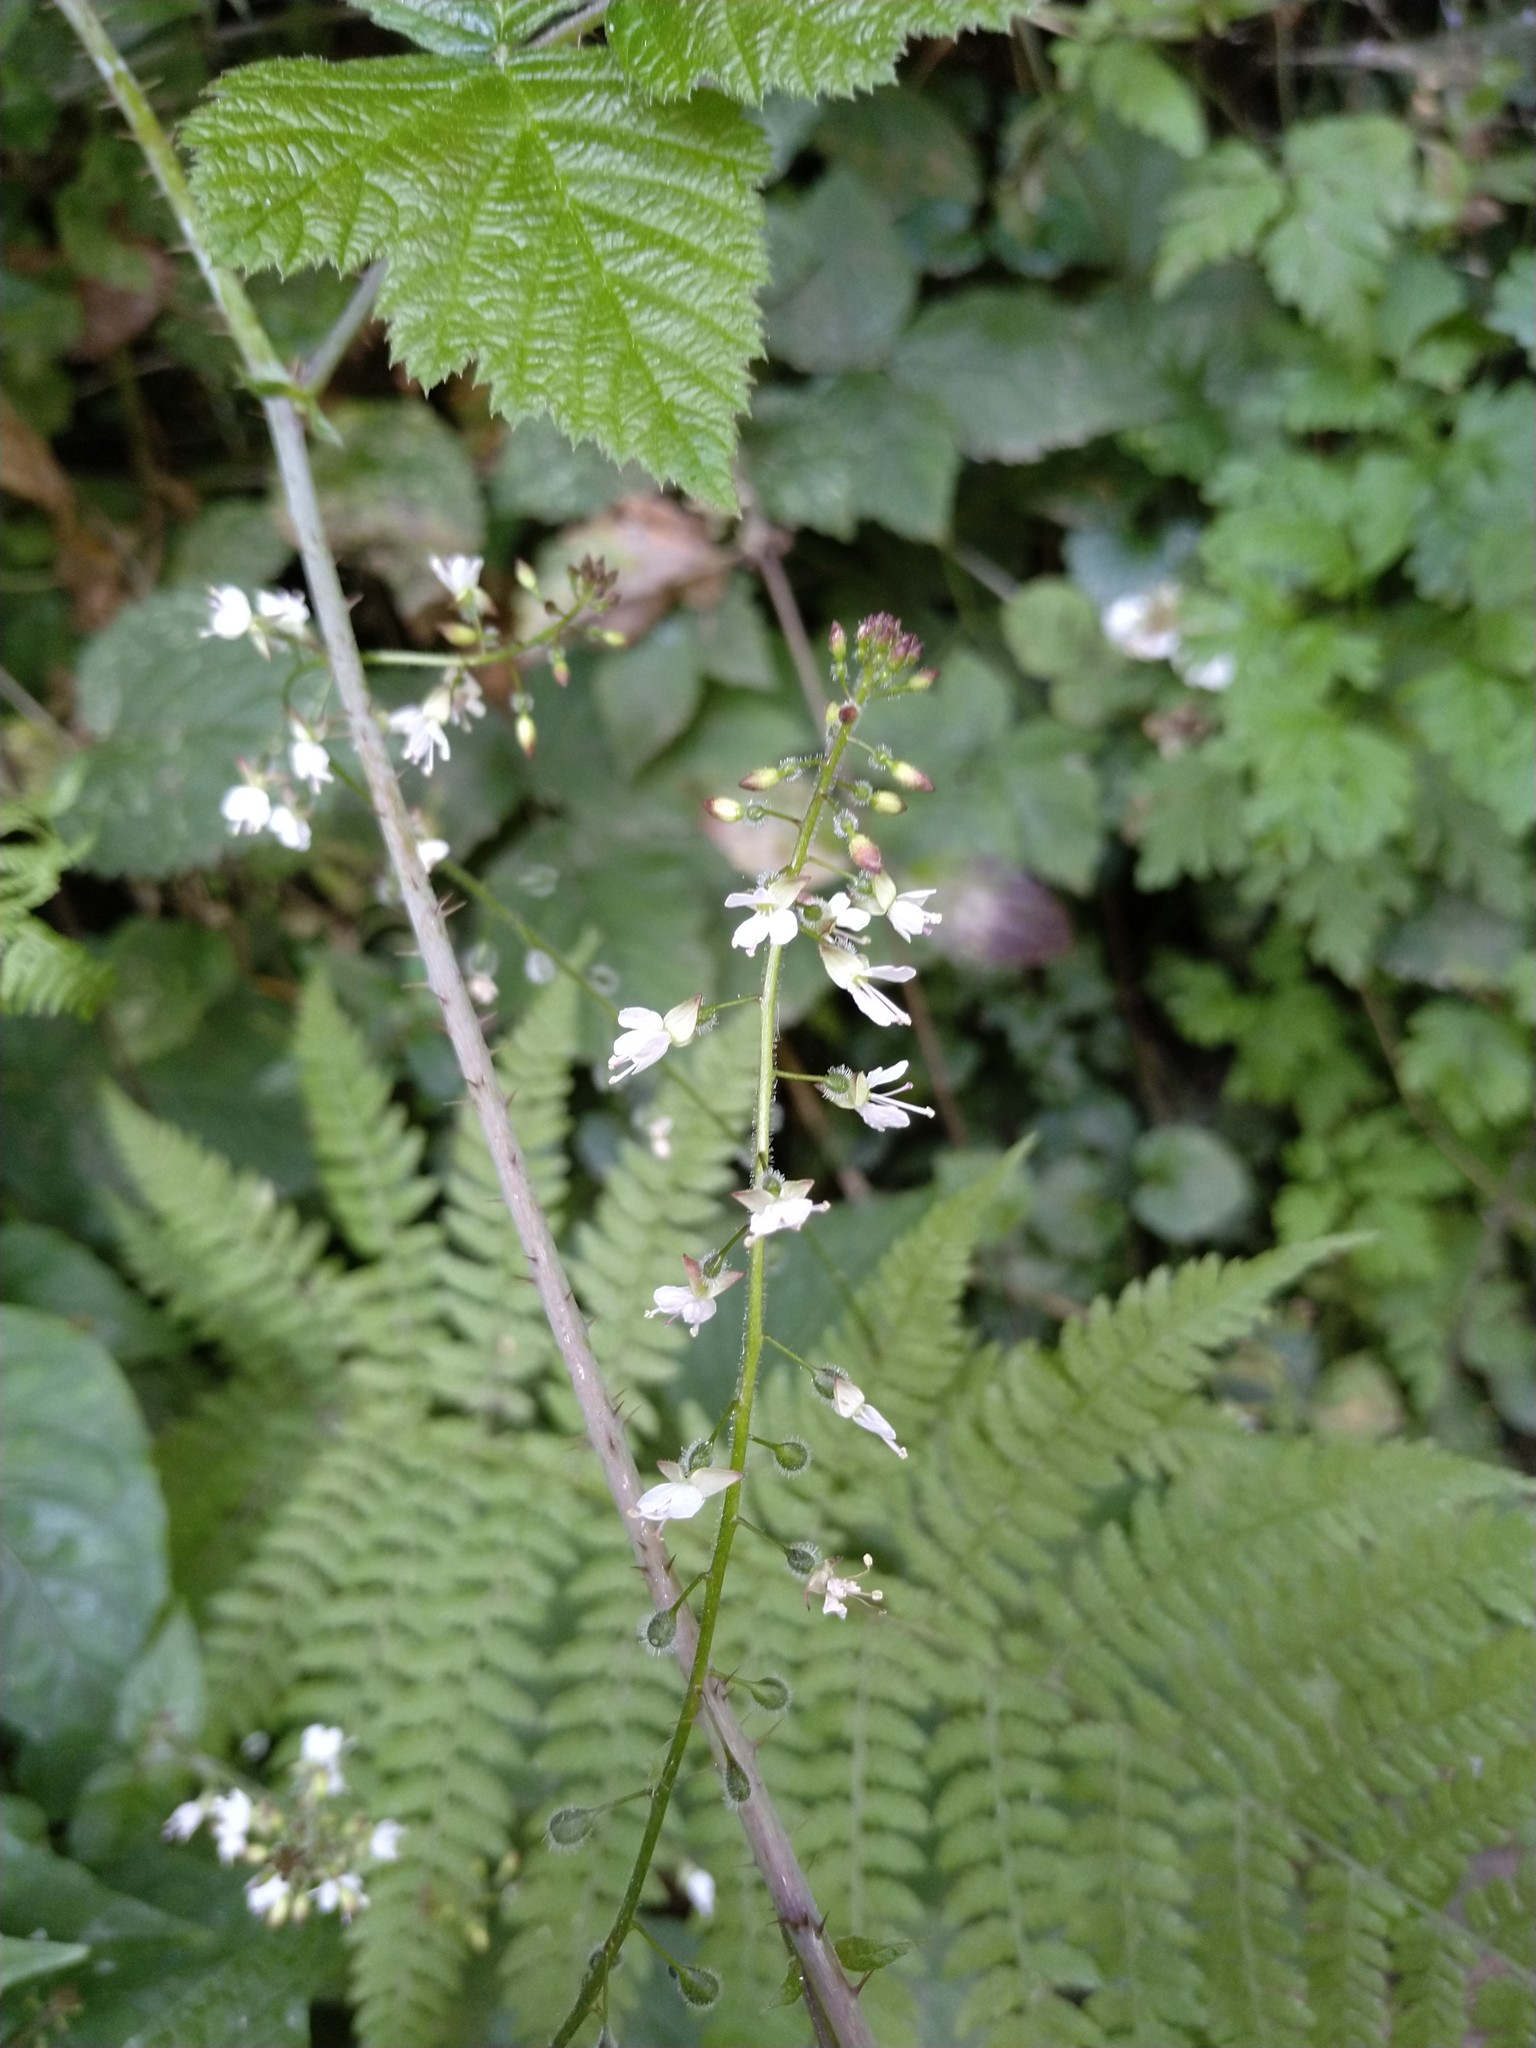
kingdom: Plantae
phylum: Tracheophyta
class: Magnoliopsida
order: Myrtales
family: Onagraceae
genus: Circaea
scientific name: Circaea lutetiana
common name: Enchanter's-nightshade
